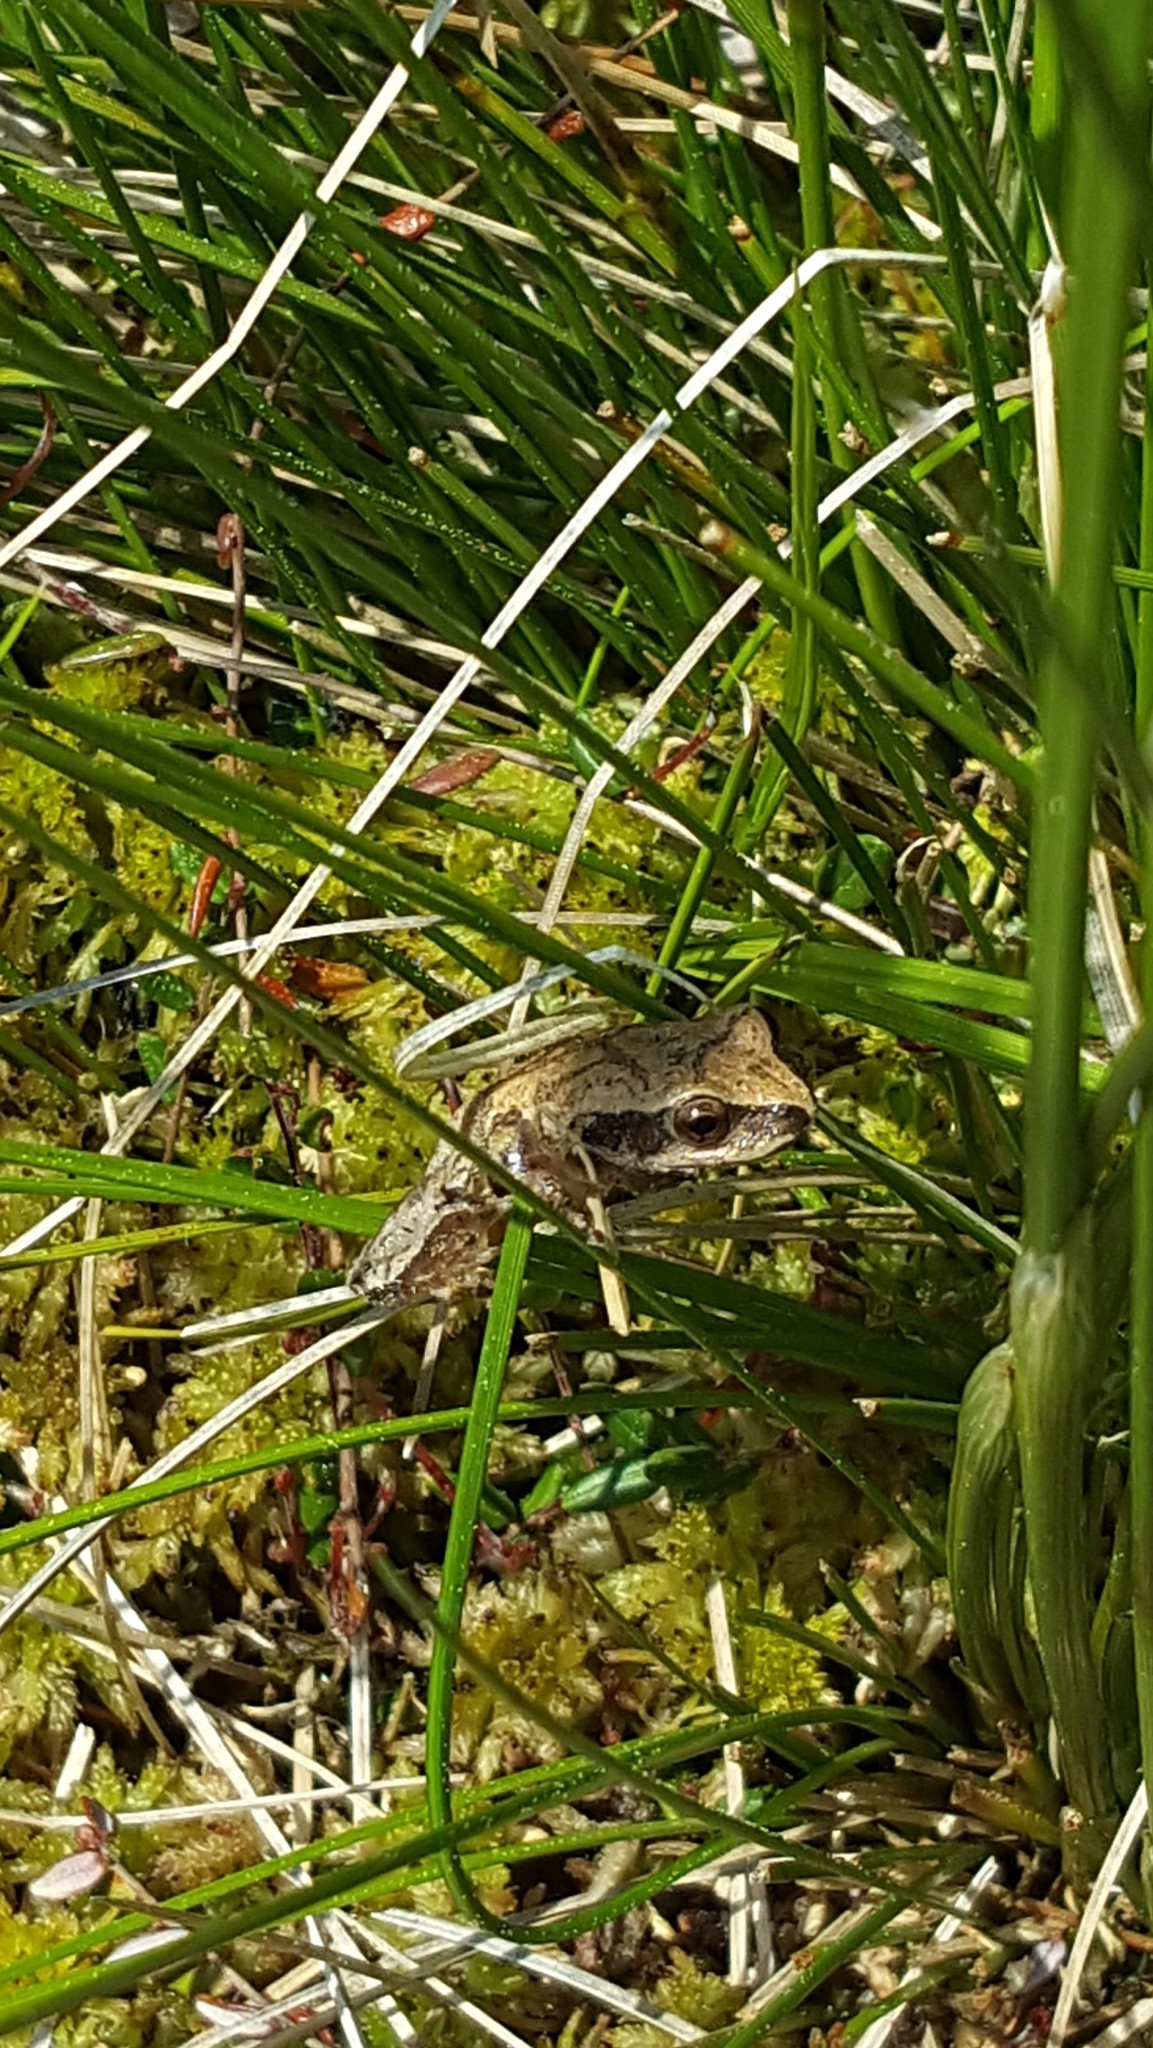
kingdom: Animalia
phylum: Chordata
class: Amphibia
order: Anura
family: Hylidae
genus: Pseudacris
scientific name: Pseudacris crucifer
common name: Spring peeper
